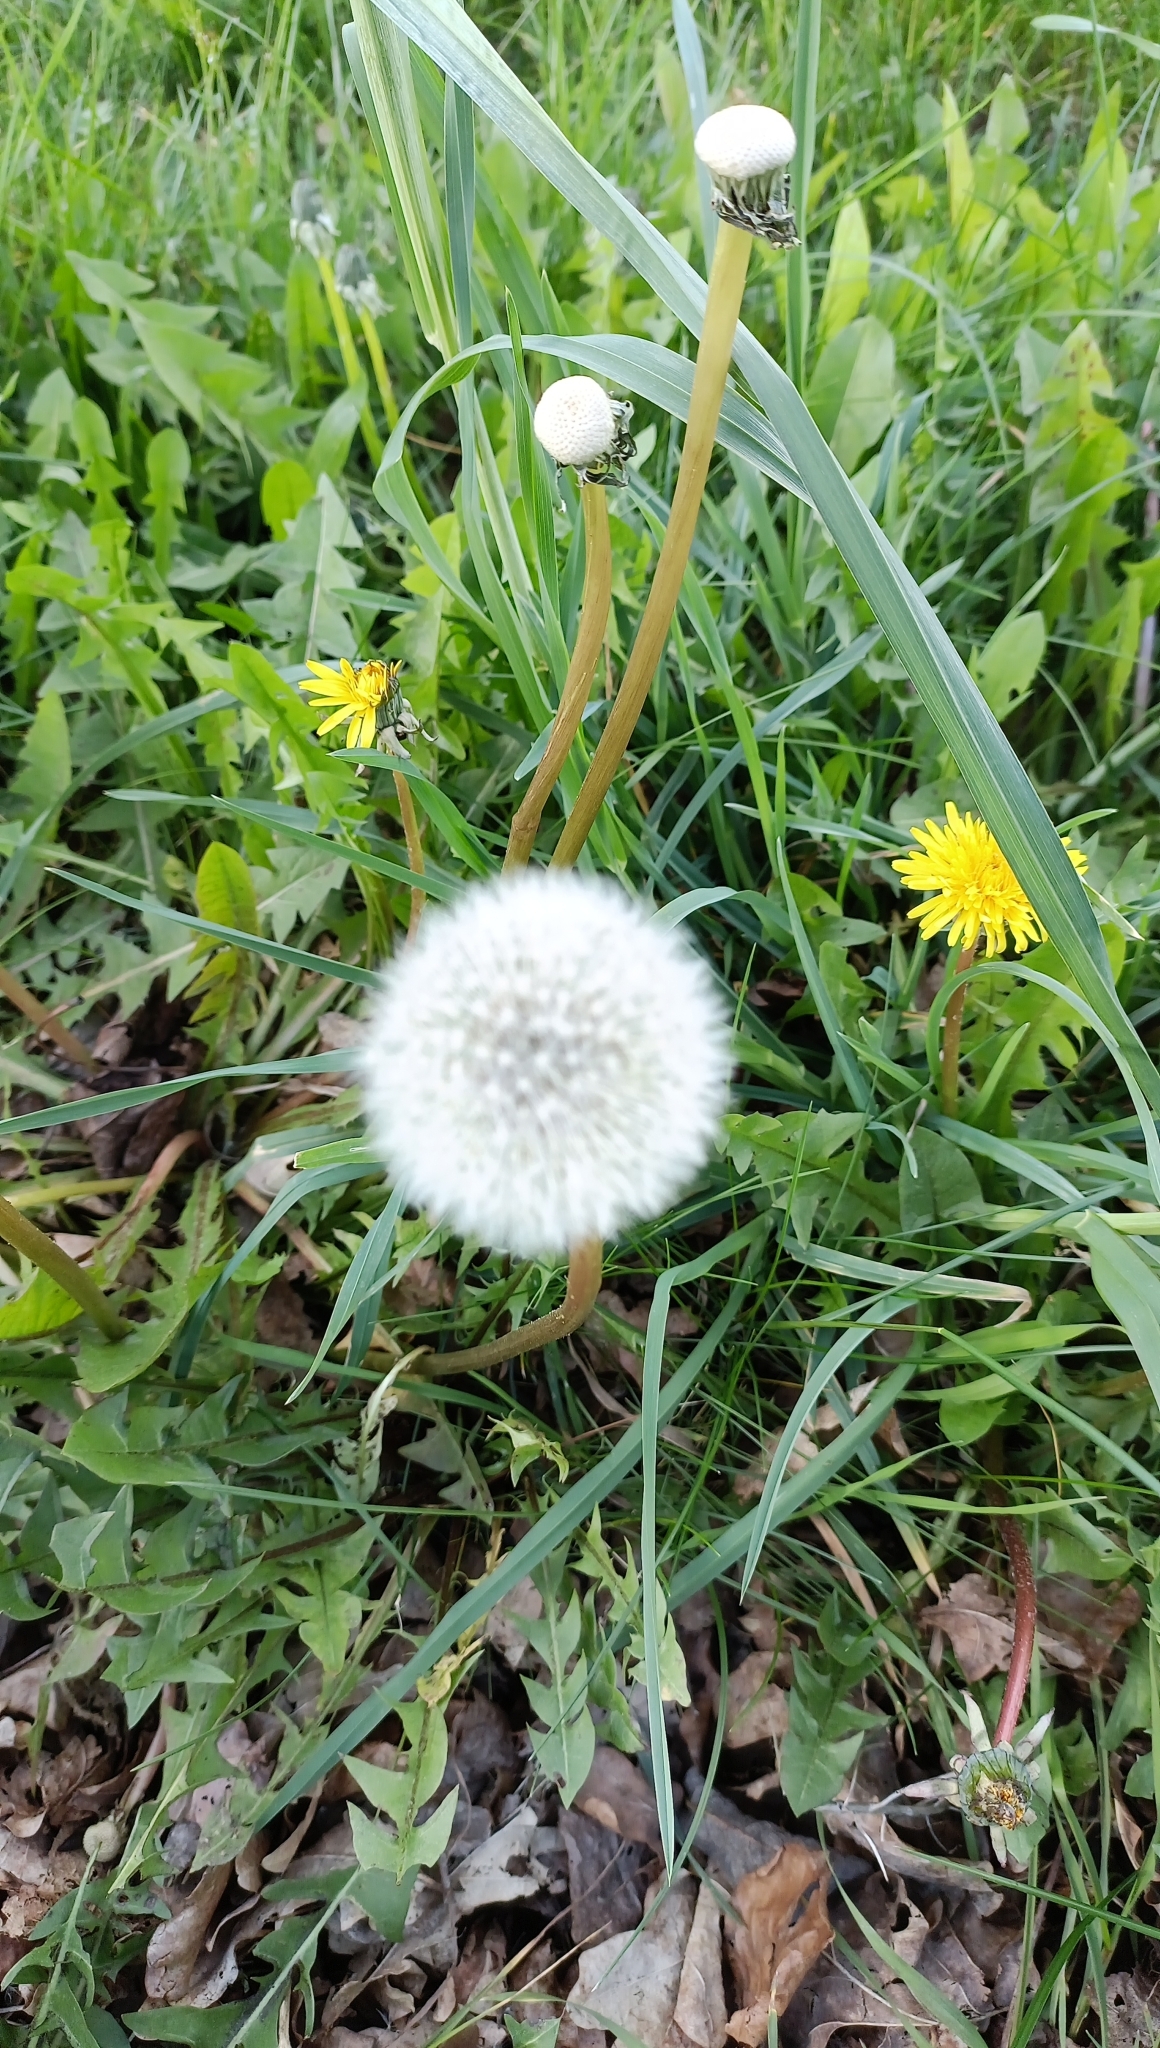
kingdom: Plantae
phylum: Tracheophyta
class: Magnoliopsida
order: Asterales
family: Asteraceae
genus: Taraxacum
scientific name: Taraxacum officinale
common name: Common dandelion
